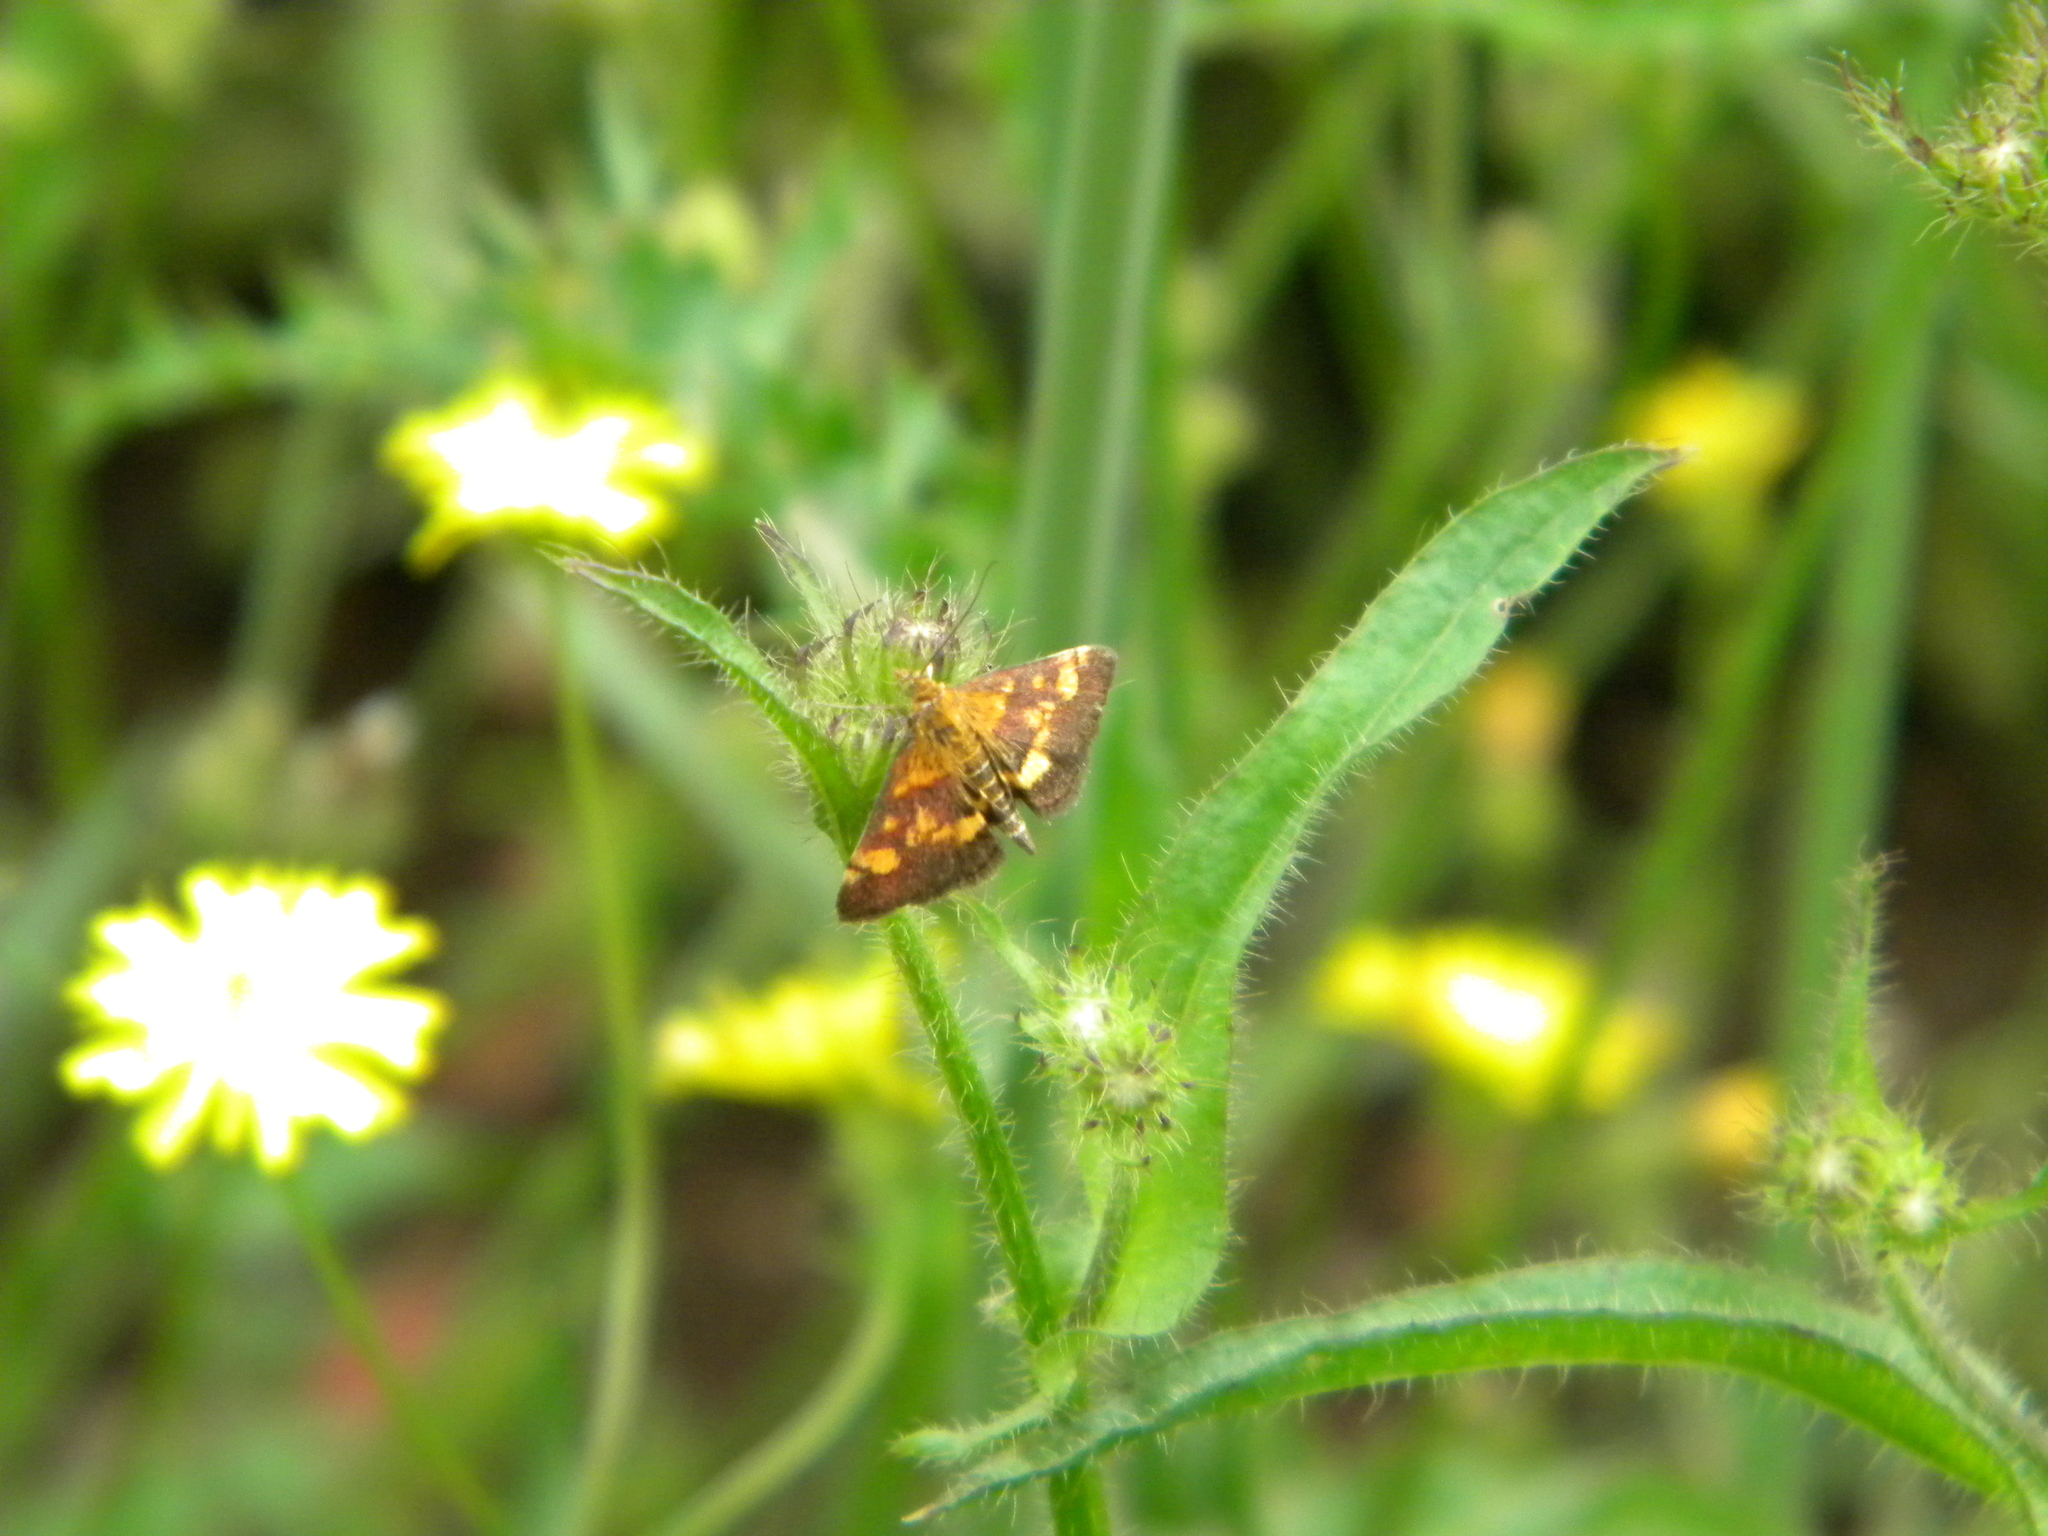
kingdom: Animalia
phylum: Arthropoda
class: Insecta
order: Lepidoptera
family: Crambidae
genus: Pyrausta
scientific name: Pyrausta aurata
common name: Small purple & gold
